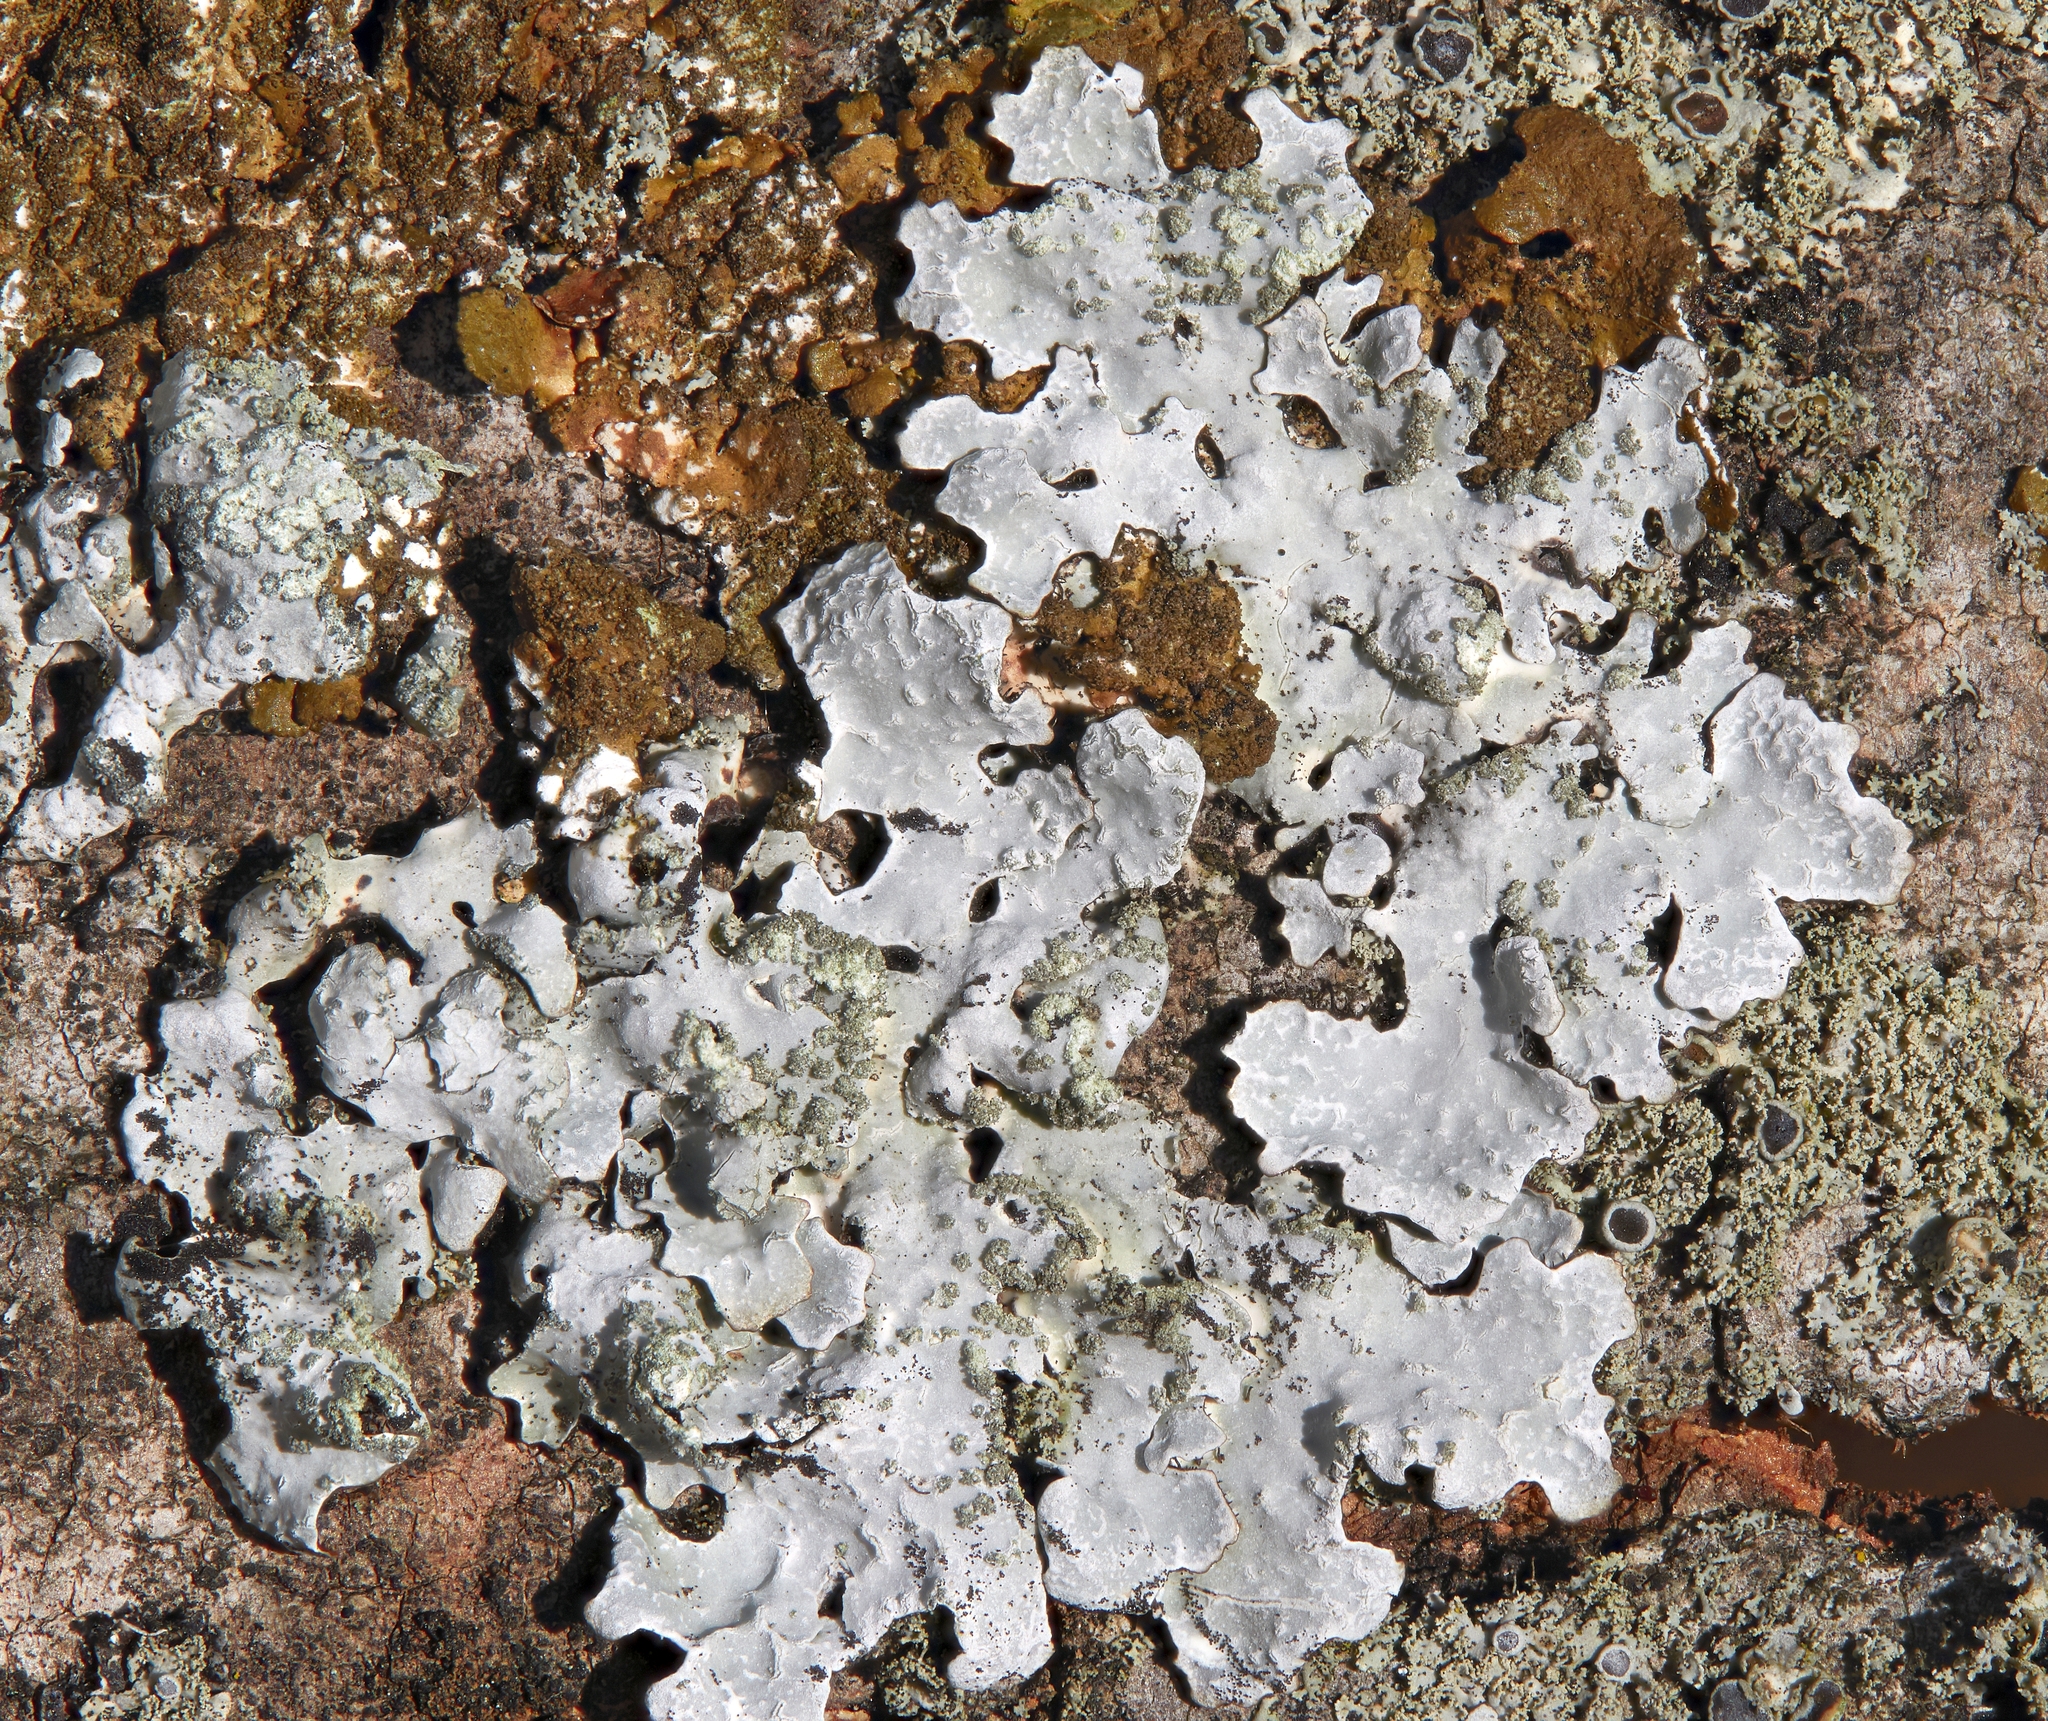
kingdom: Fungi
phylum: Ascomycota
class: Lecanoromycetes
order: Lecanorales
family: Parmeliaceae
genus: Parmelia
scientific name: Parmelia sulcata
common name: Netted shield lichen
